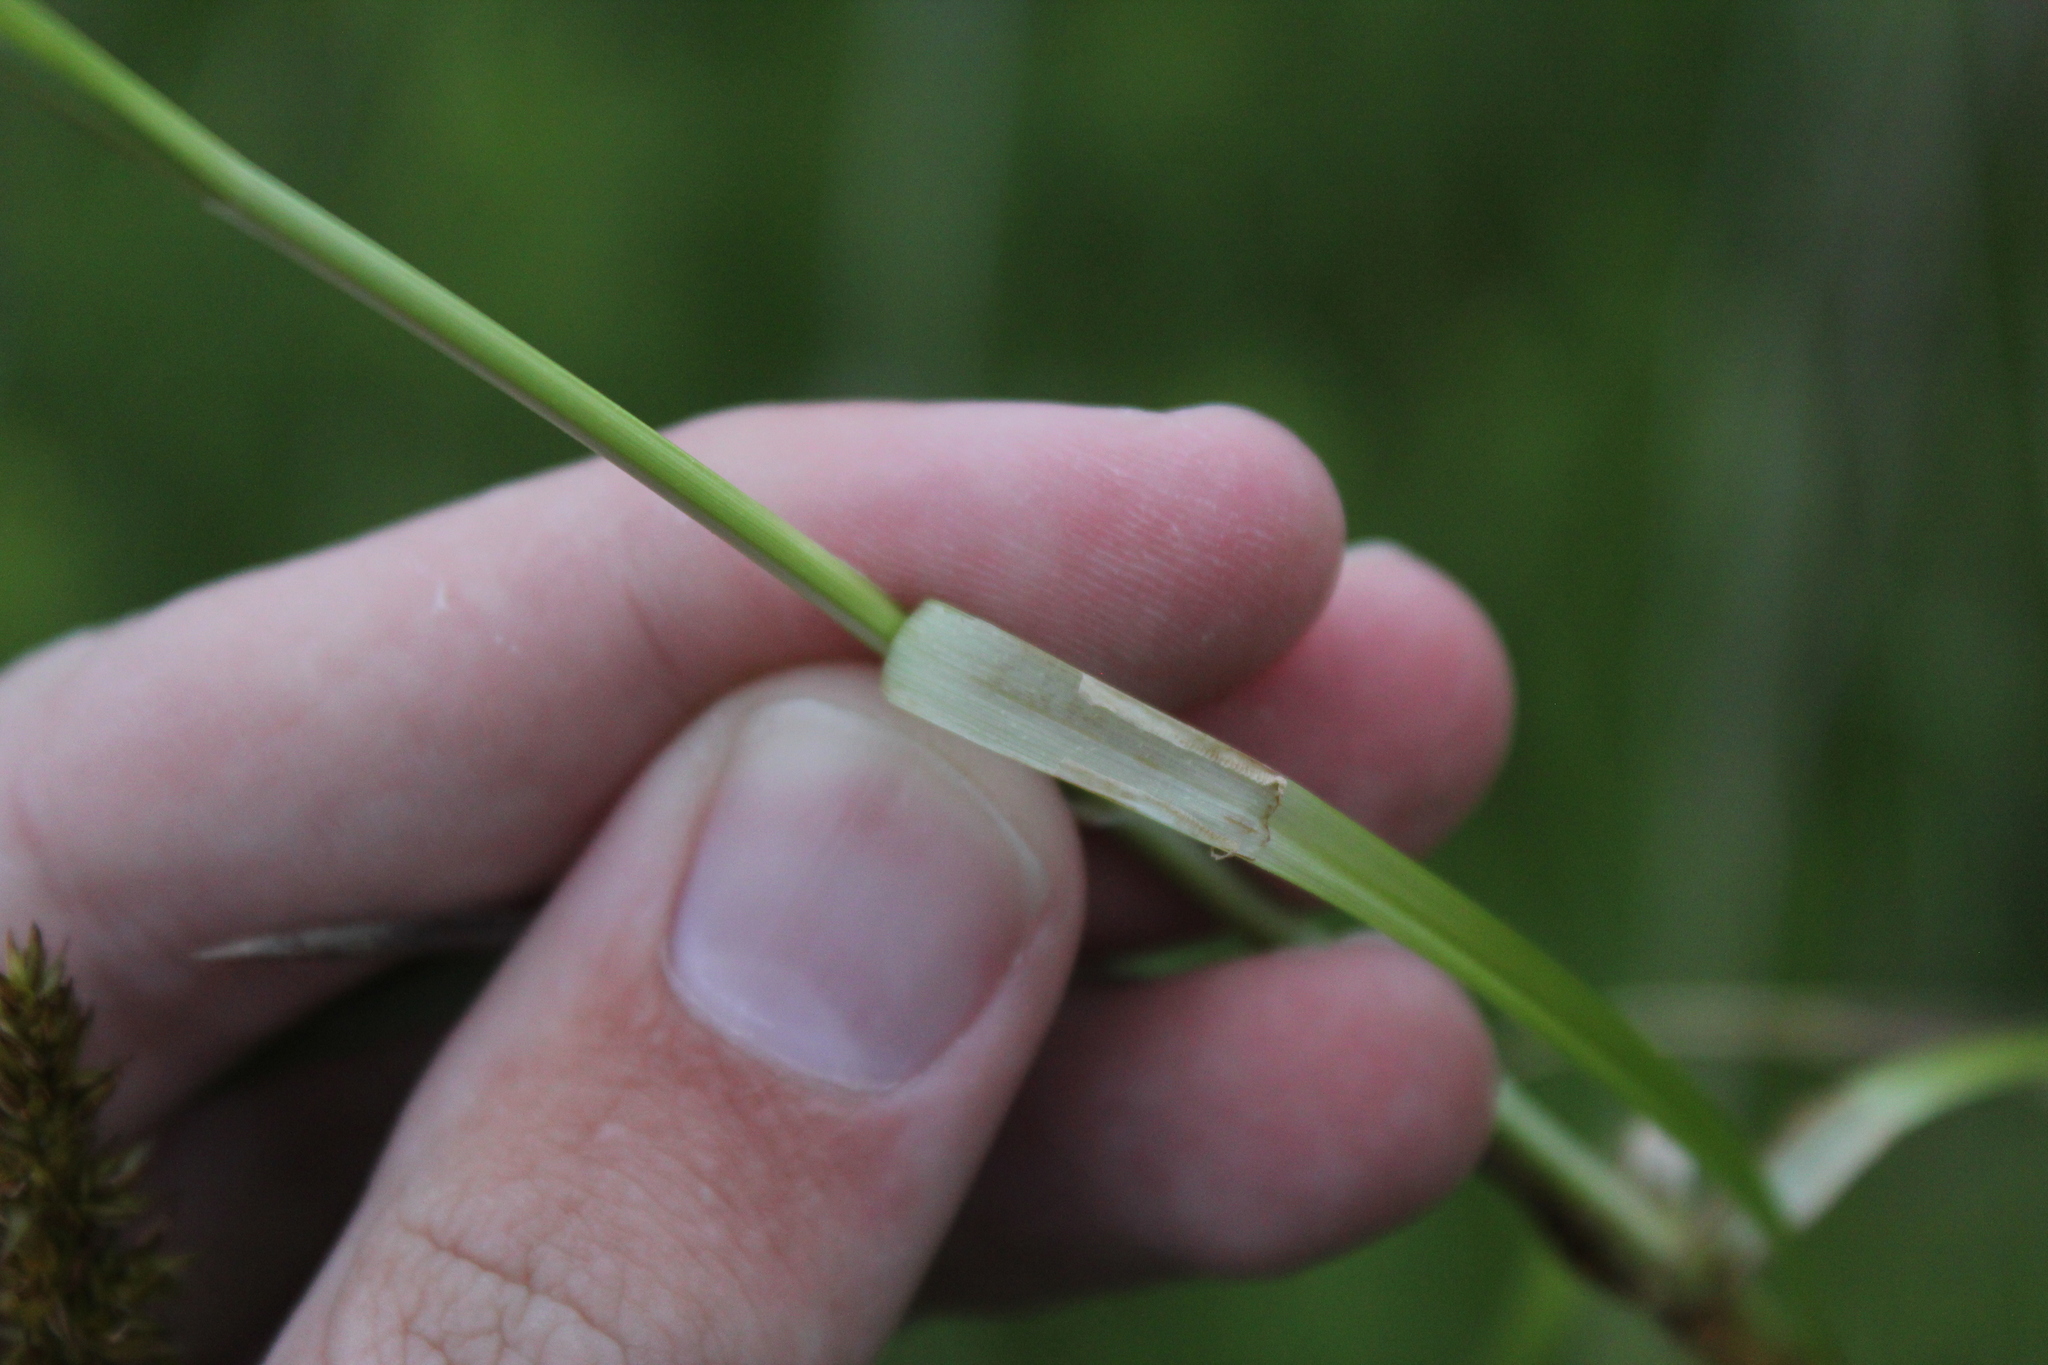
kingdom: Plantae
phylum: Tracheophyta
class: Liliopsida
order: Poales
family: Cyperaceae
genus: Carex
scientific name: Carex vulpinoidea
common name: American fox-sedge
